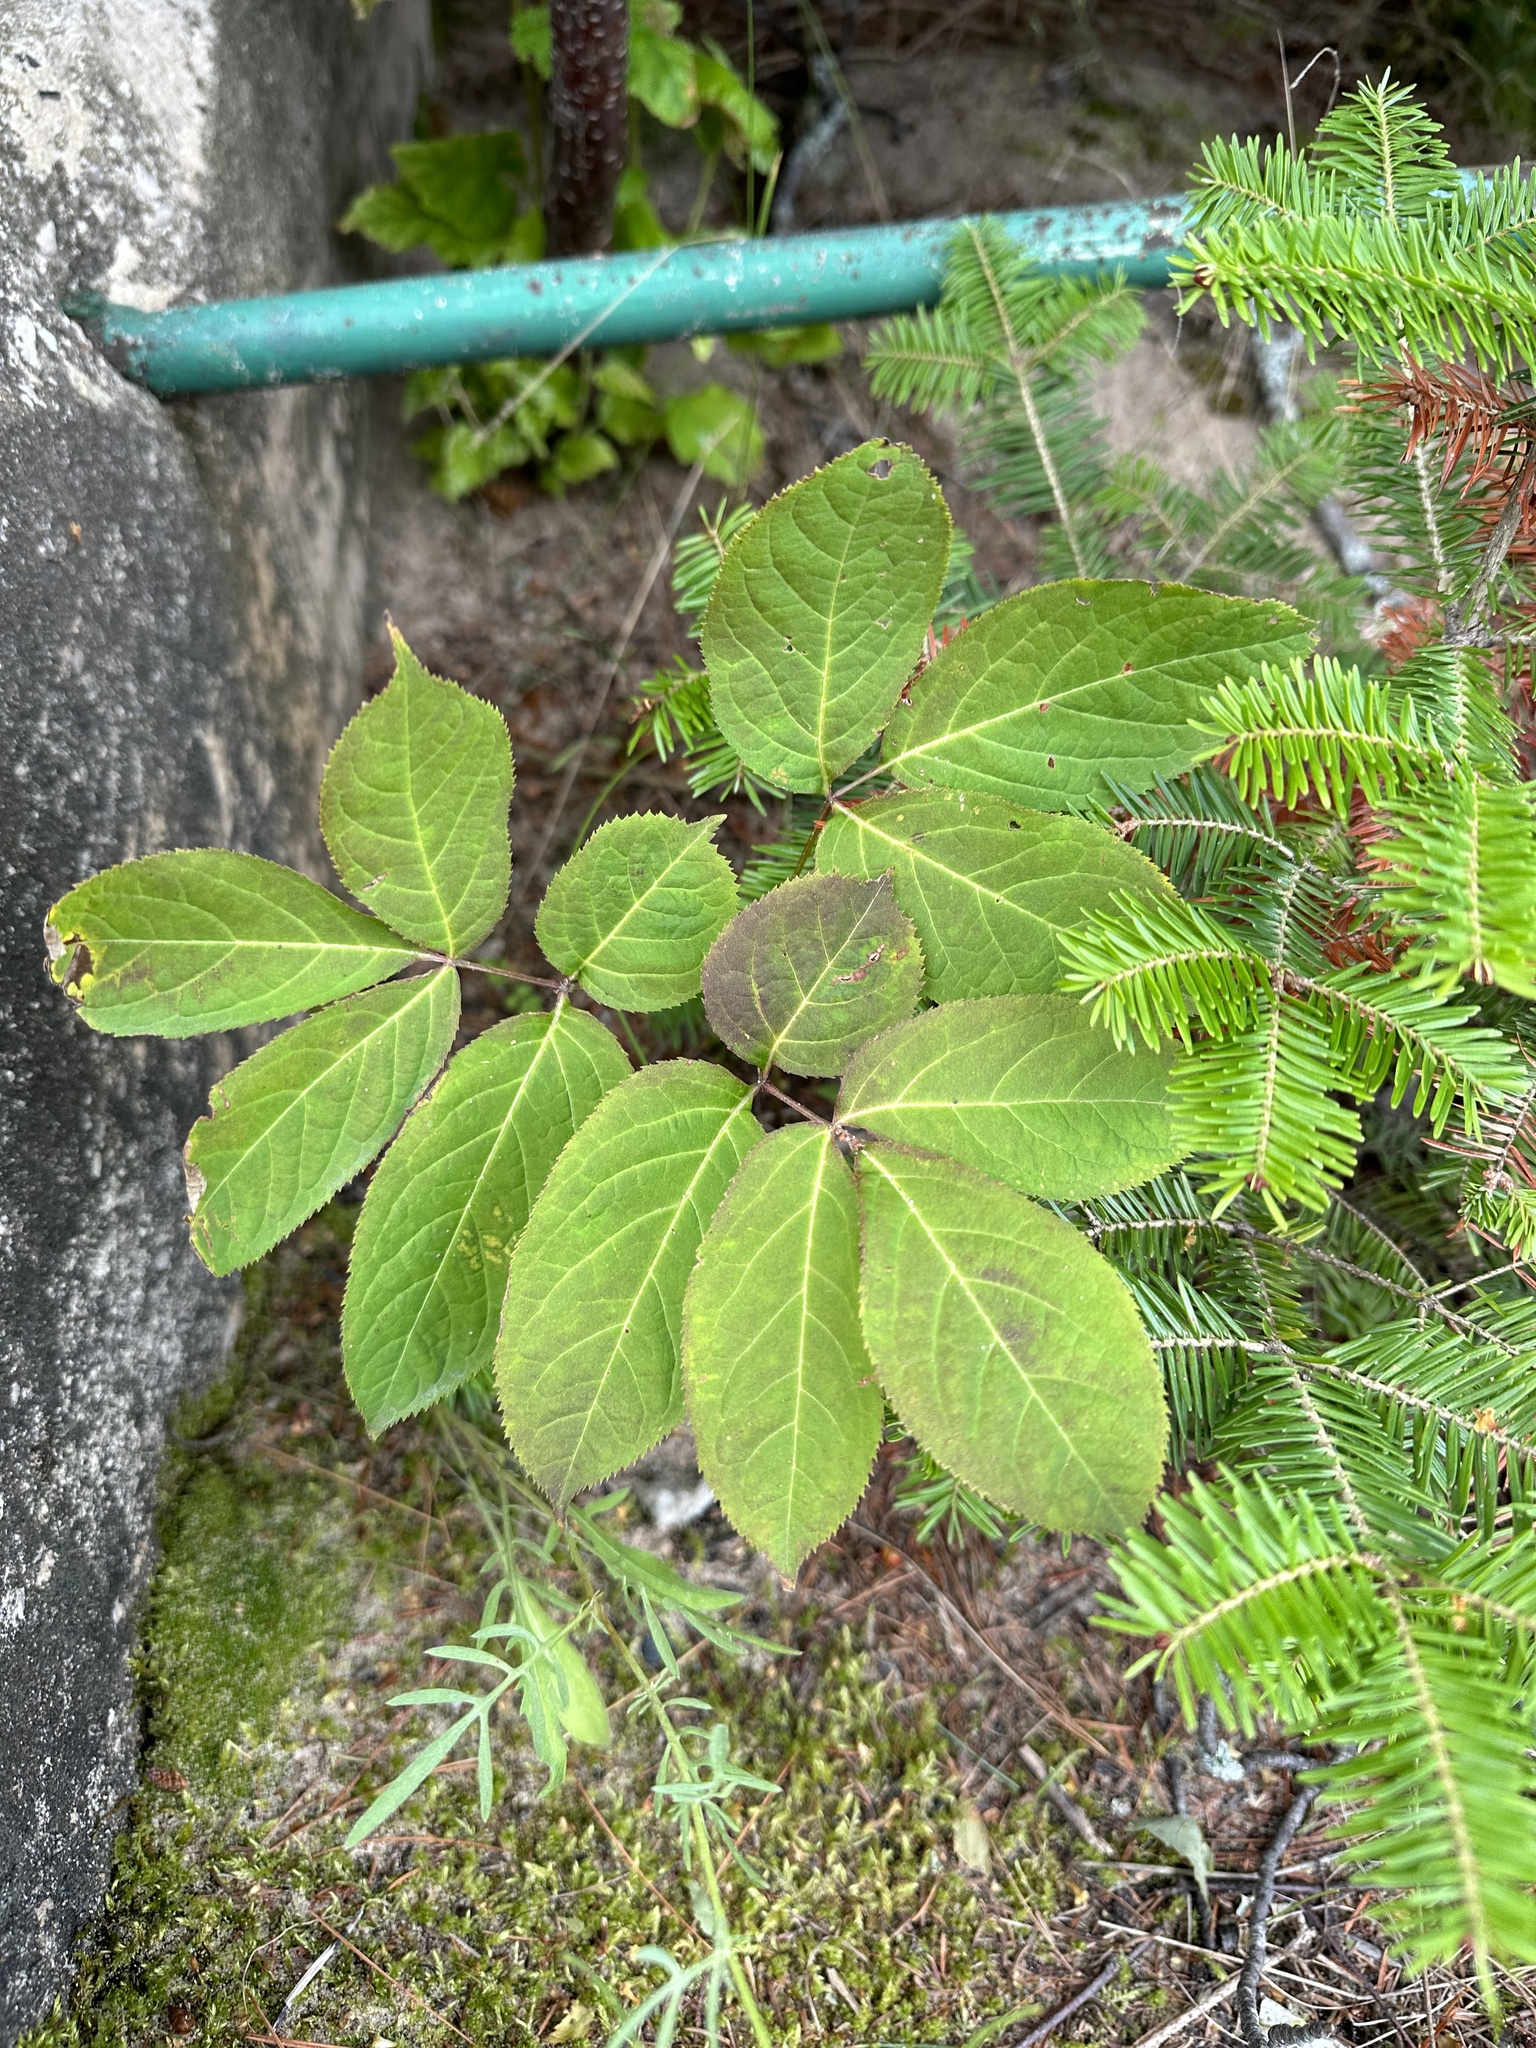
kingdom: Plantae
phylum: Tracheophyta
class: Magnoliopsida
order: Apiales
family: Araliaceae
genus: Aralia
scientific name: Aralia nudicaulis
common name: Wild sarsaparilla
